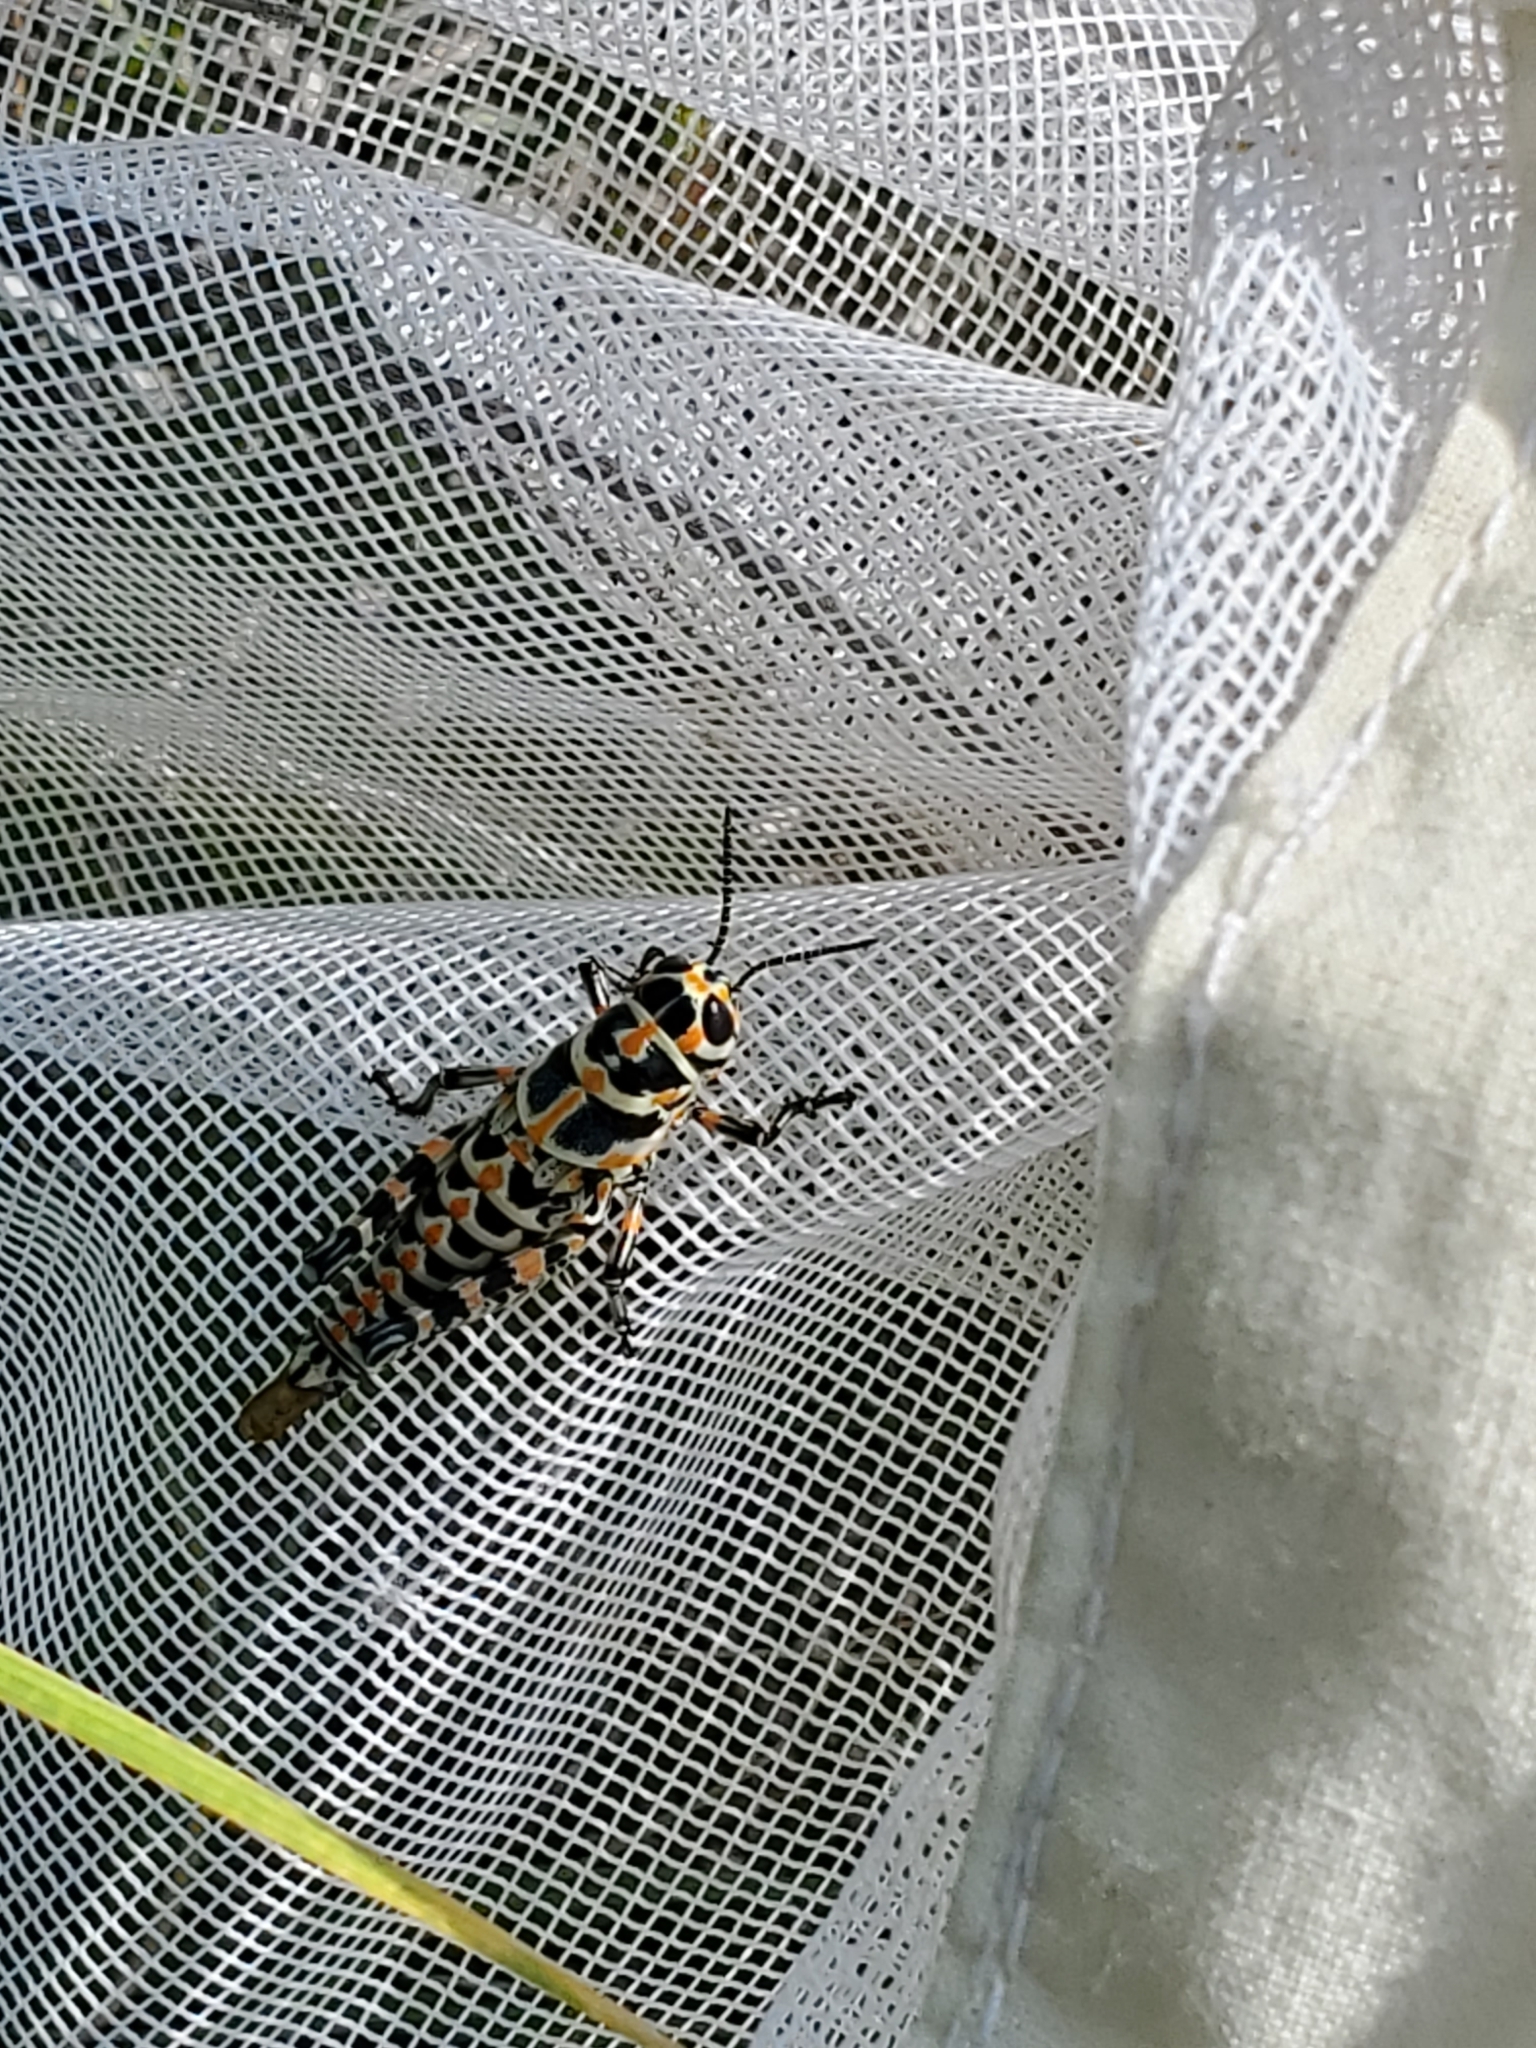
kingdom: Animalia
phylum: Arthropoda
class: Insecta
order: Orthoptera
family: Acrididae
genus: Dactylotum
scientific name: Dactylotum bicolor
